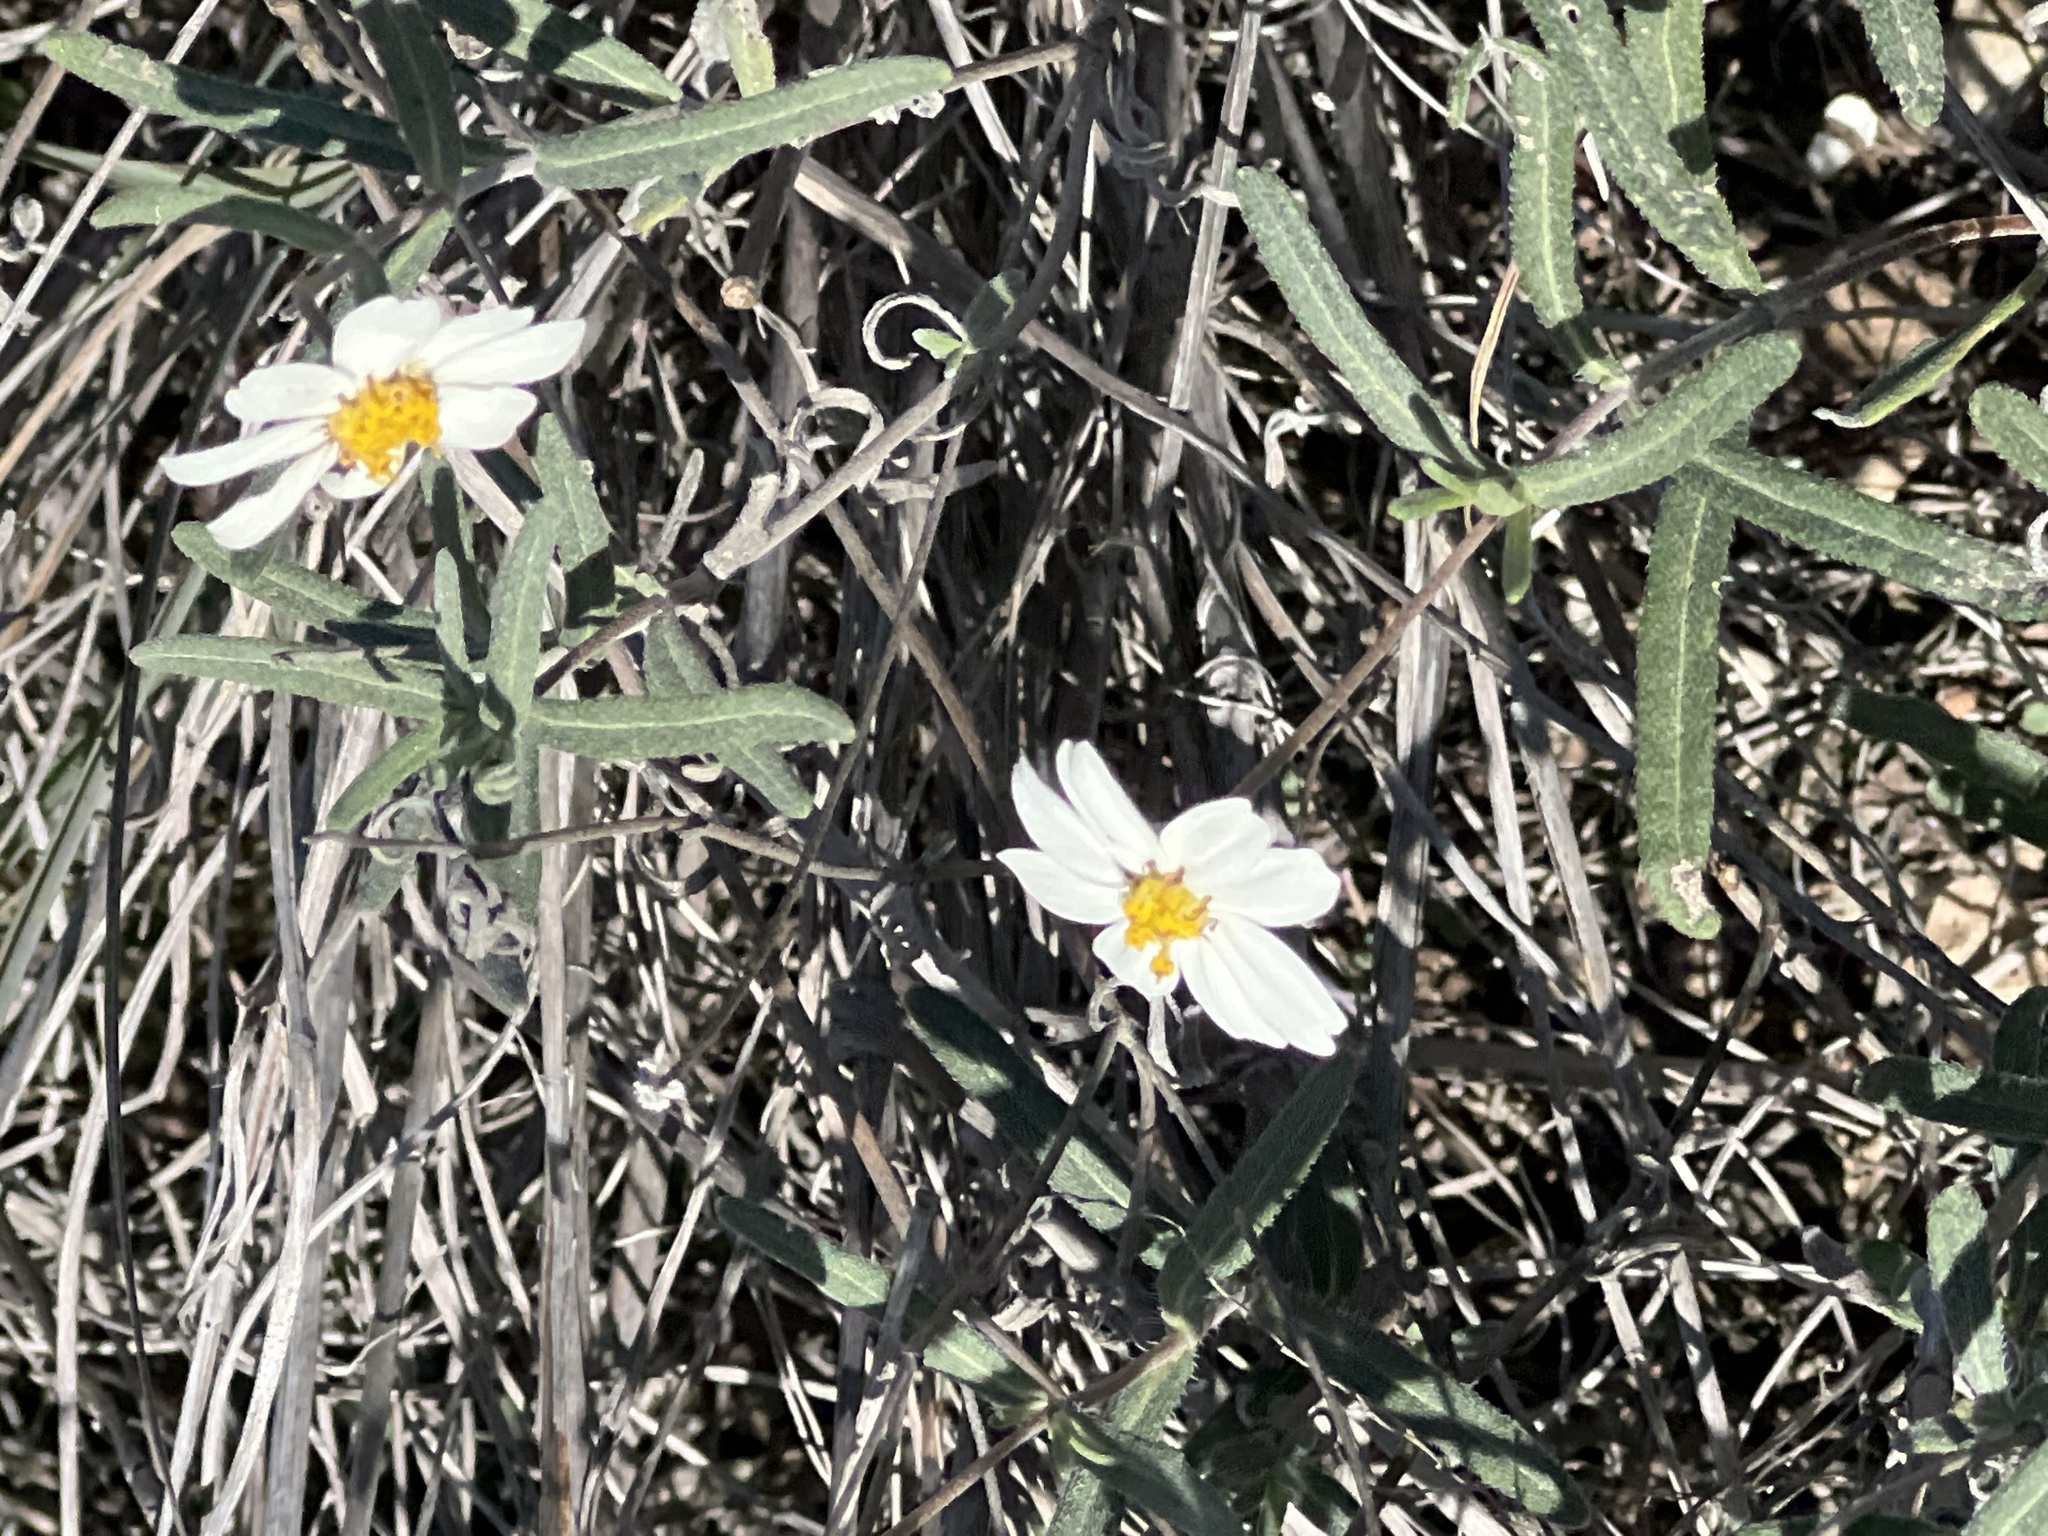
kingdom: Plantae
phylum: Tracheophyta
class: Magnoliopsida
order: Asterales
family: Asteraceae
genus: Melampodium
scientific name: Melampodium leucanthum
